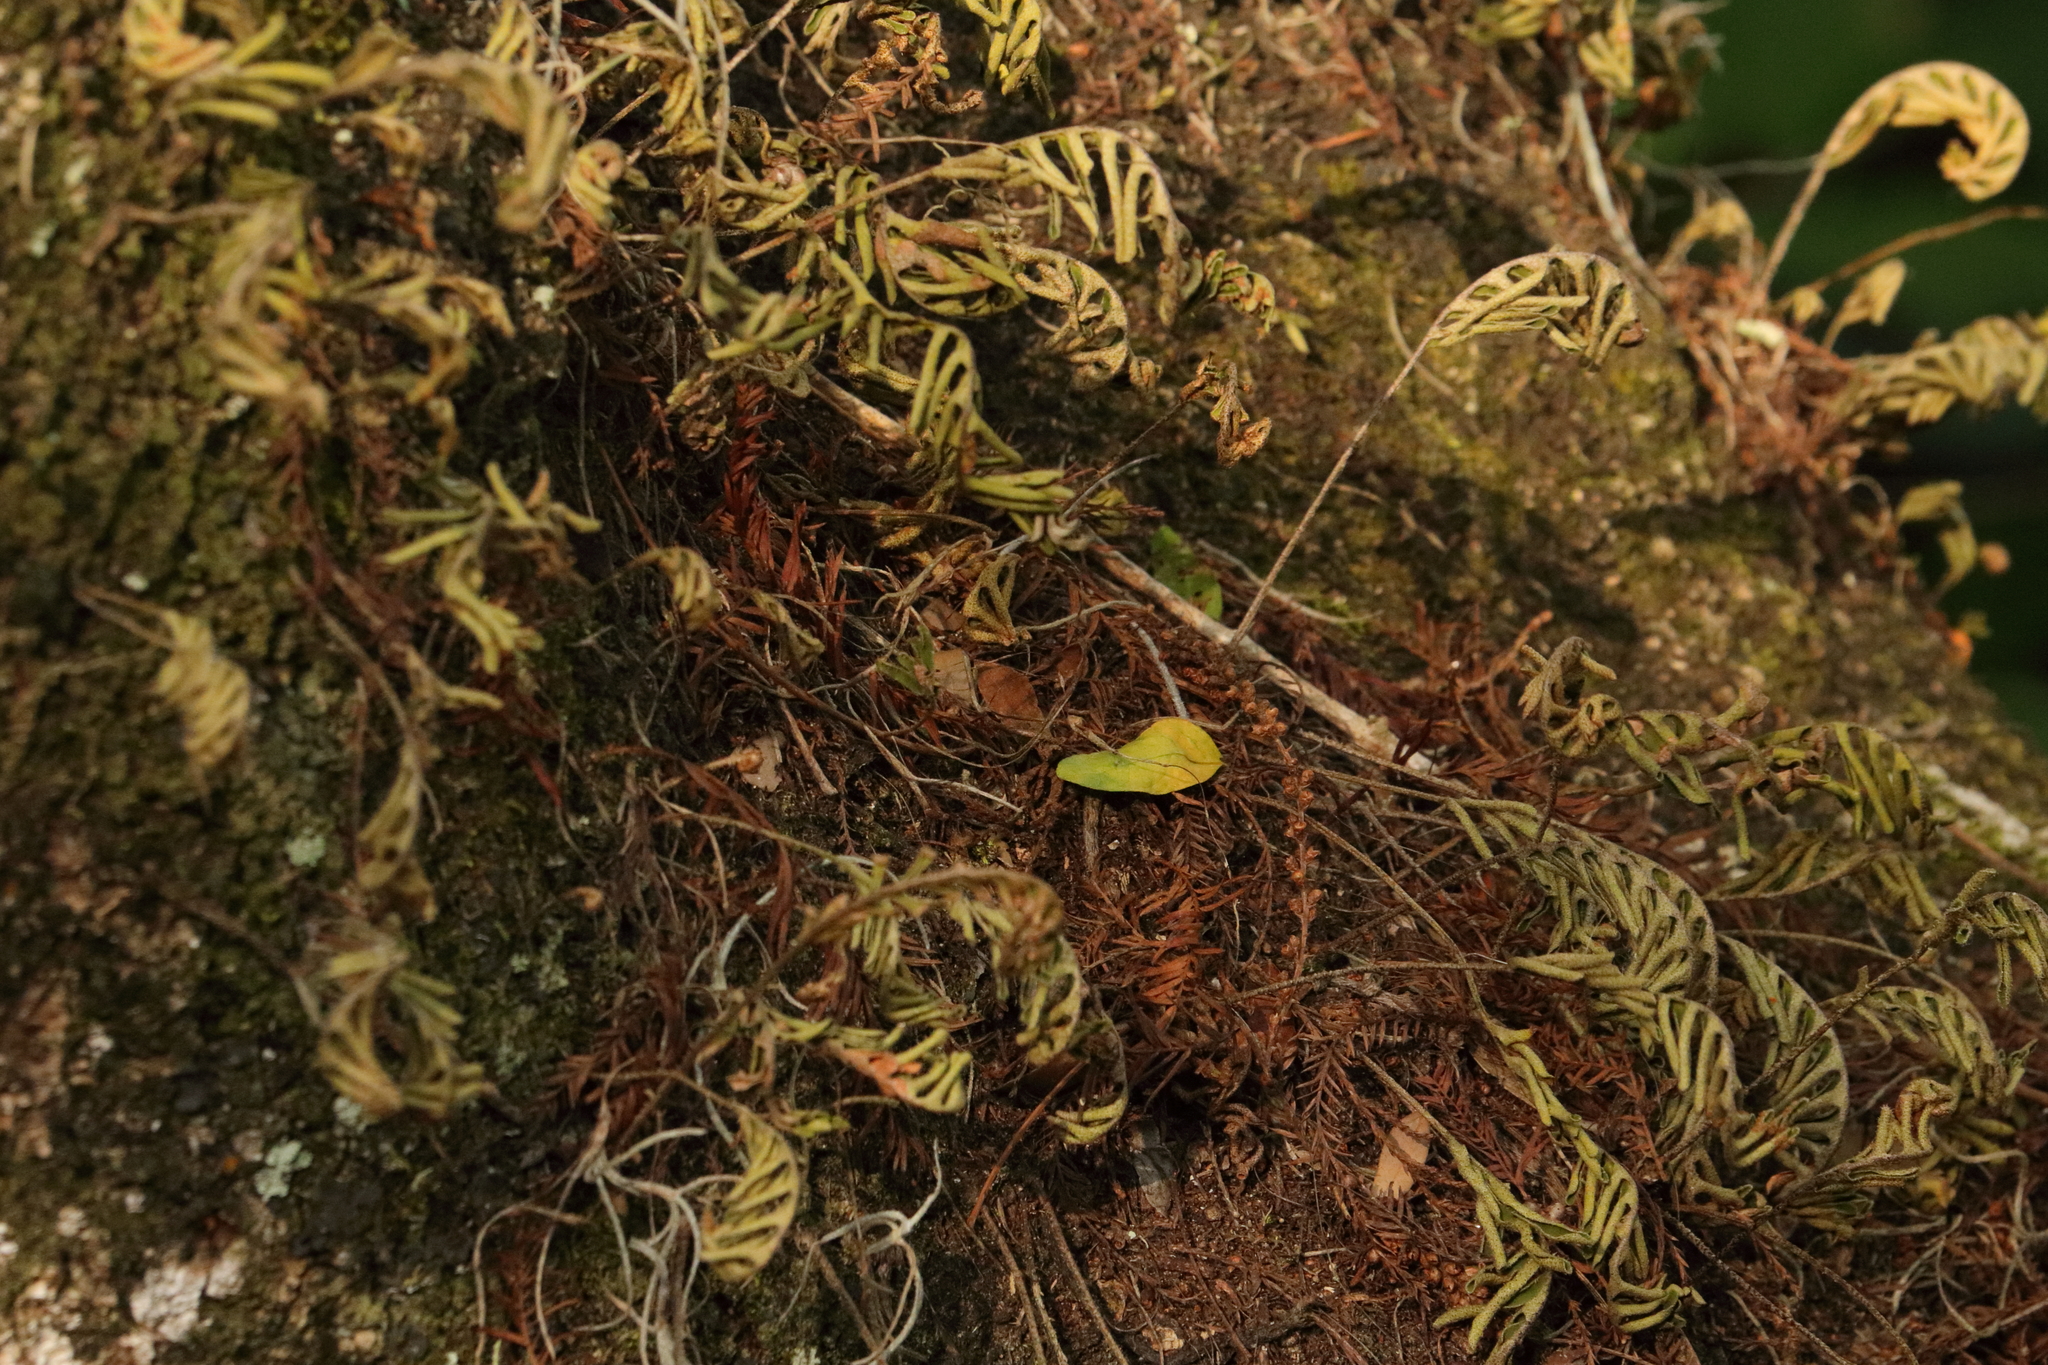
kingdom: Plantae
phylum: Tracheophyta
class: Polypodiopsida
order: Polypodiales
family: Polypodiaceae
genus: Pleopeltis
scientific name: Pleopeltis michauxiana
